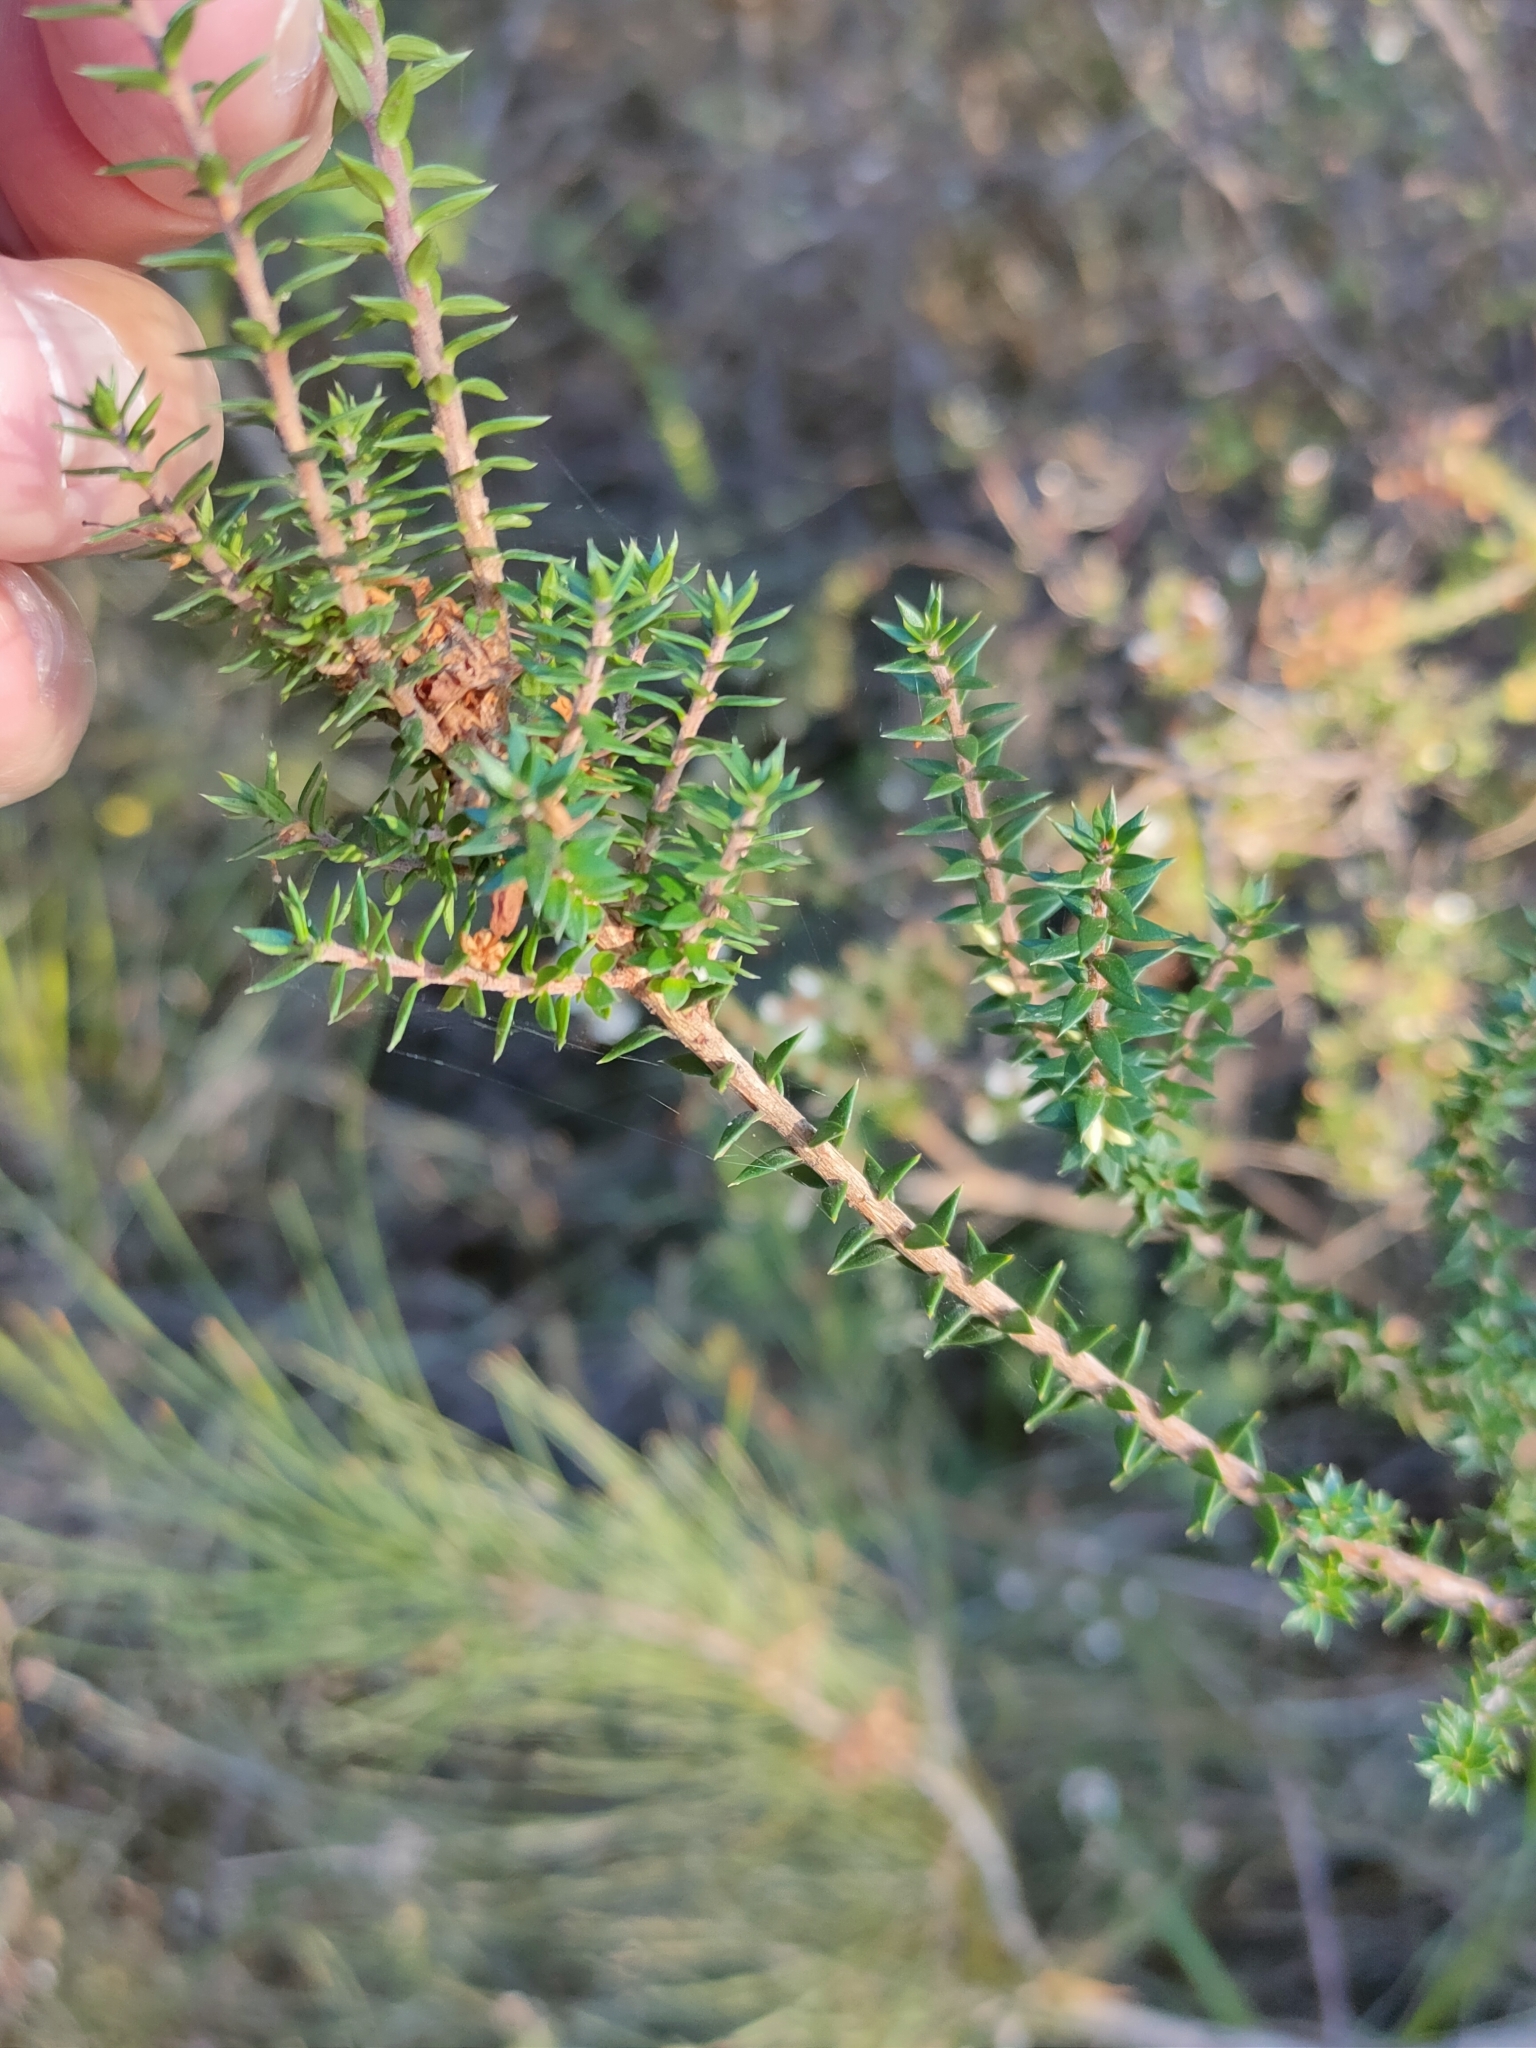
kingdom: Plantae
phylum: Tracheophyta
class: Magnoliopsida
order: Ericales
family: Ericaceae
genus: Epacris
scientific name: Epacris impressa
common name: Common-heath
